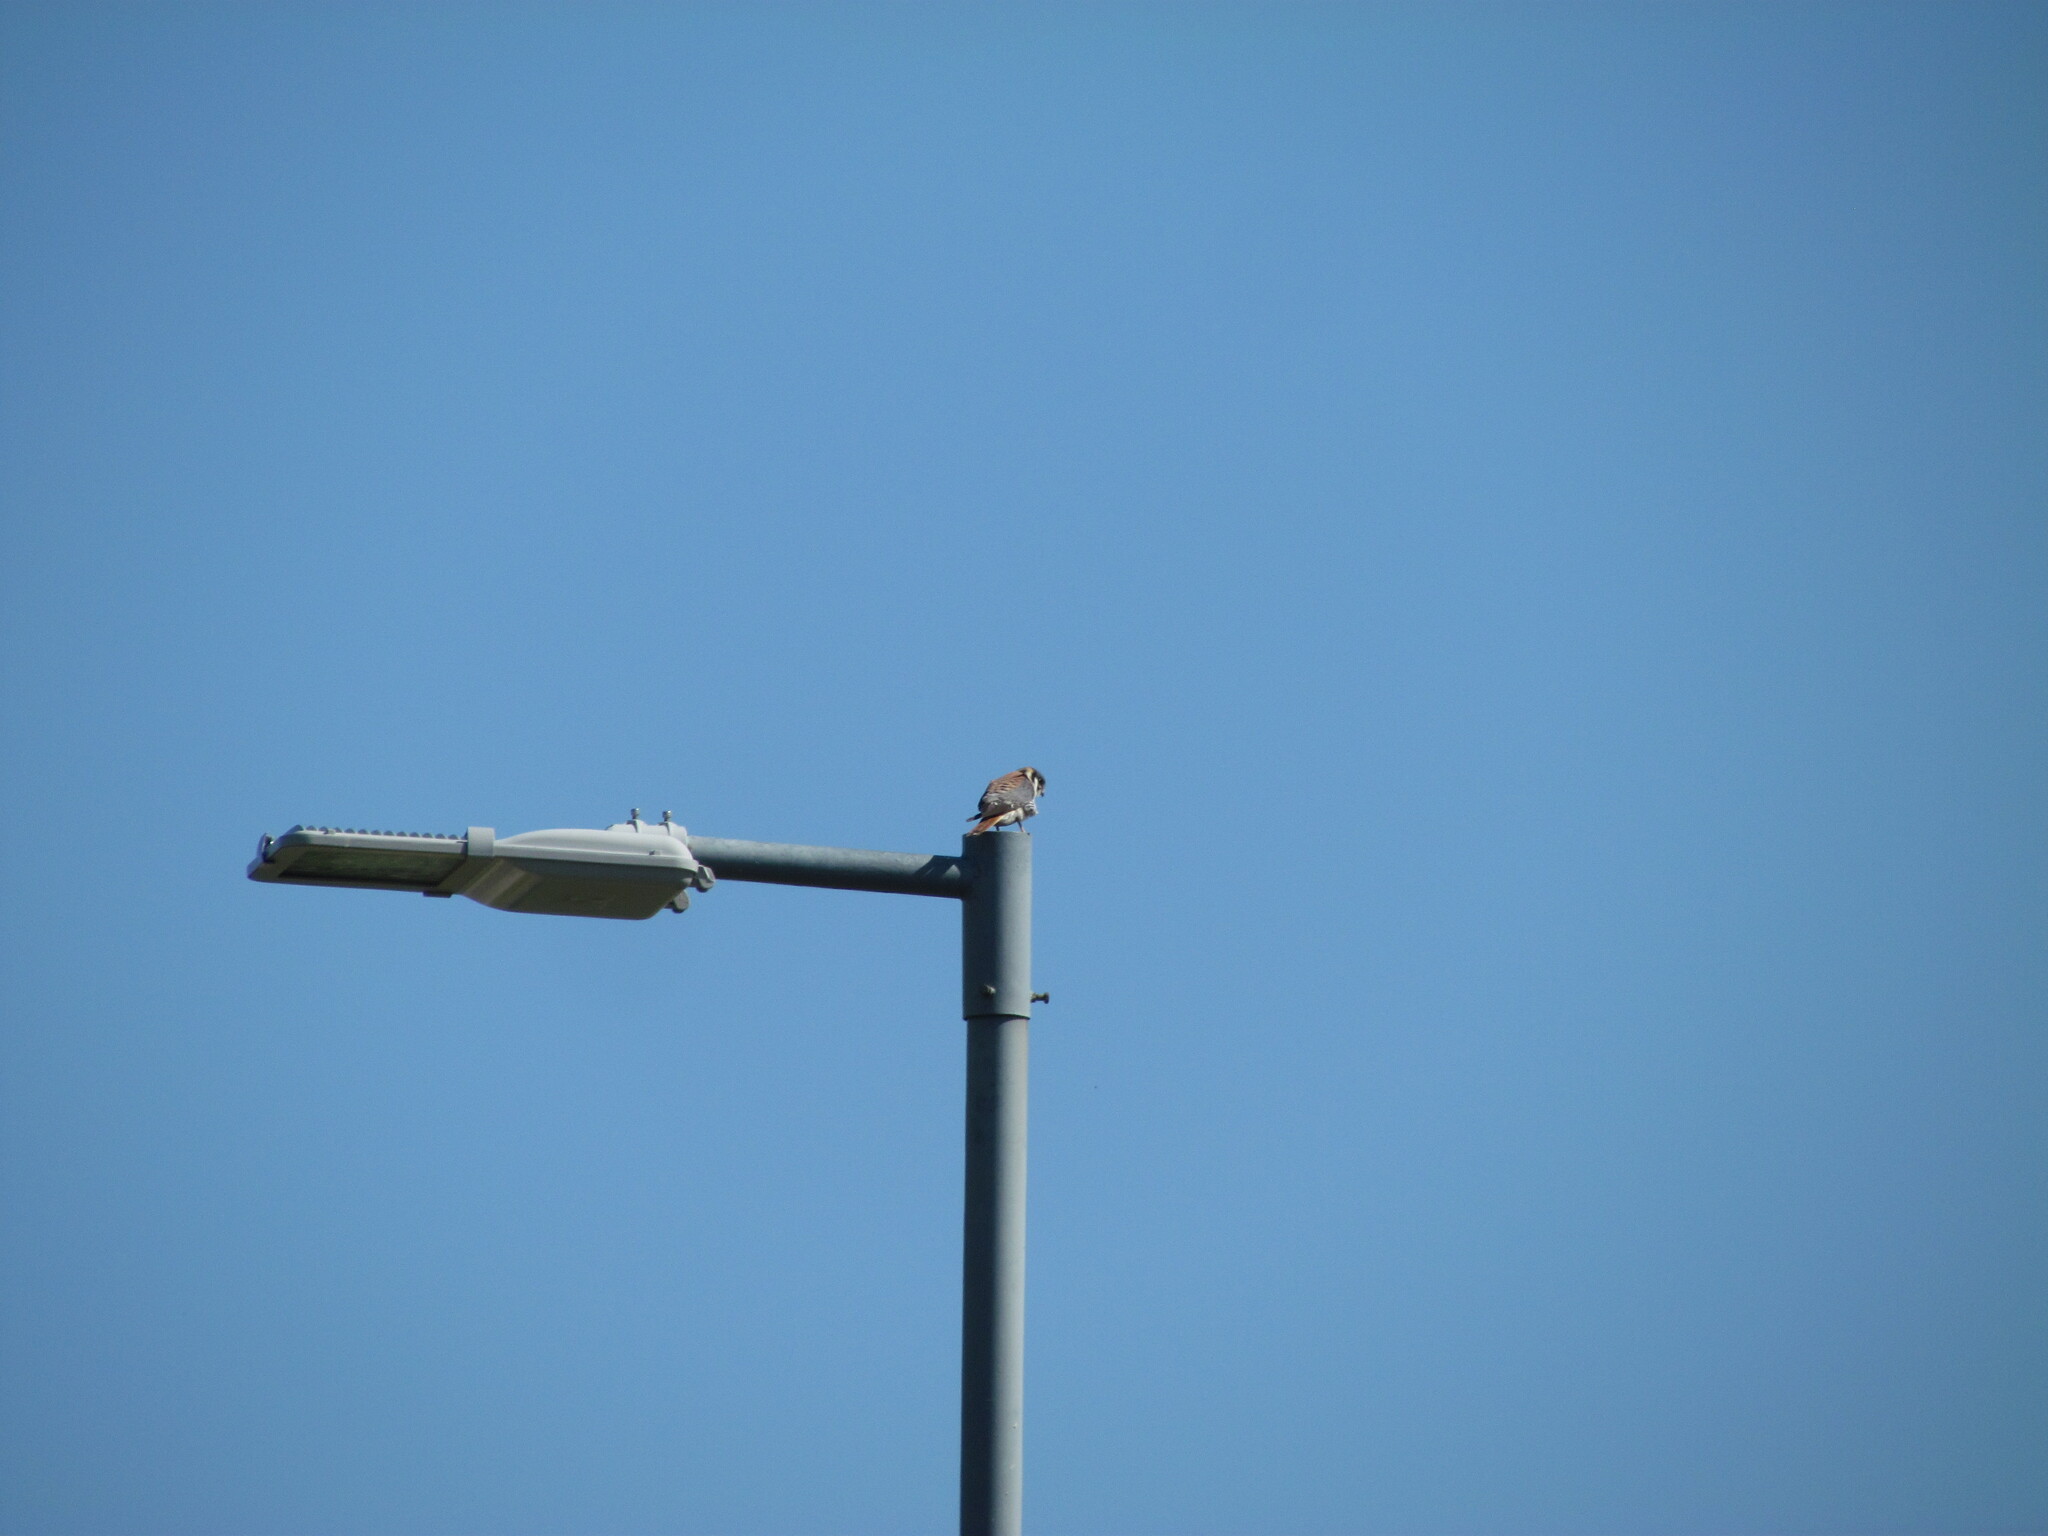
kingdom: Animalia
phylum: Chordata
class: Aves
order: Falconiformes
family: Falconidae
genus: Falco
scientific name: Falco sparverius
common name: American kestrel
